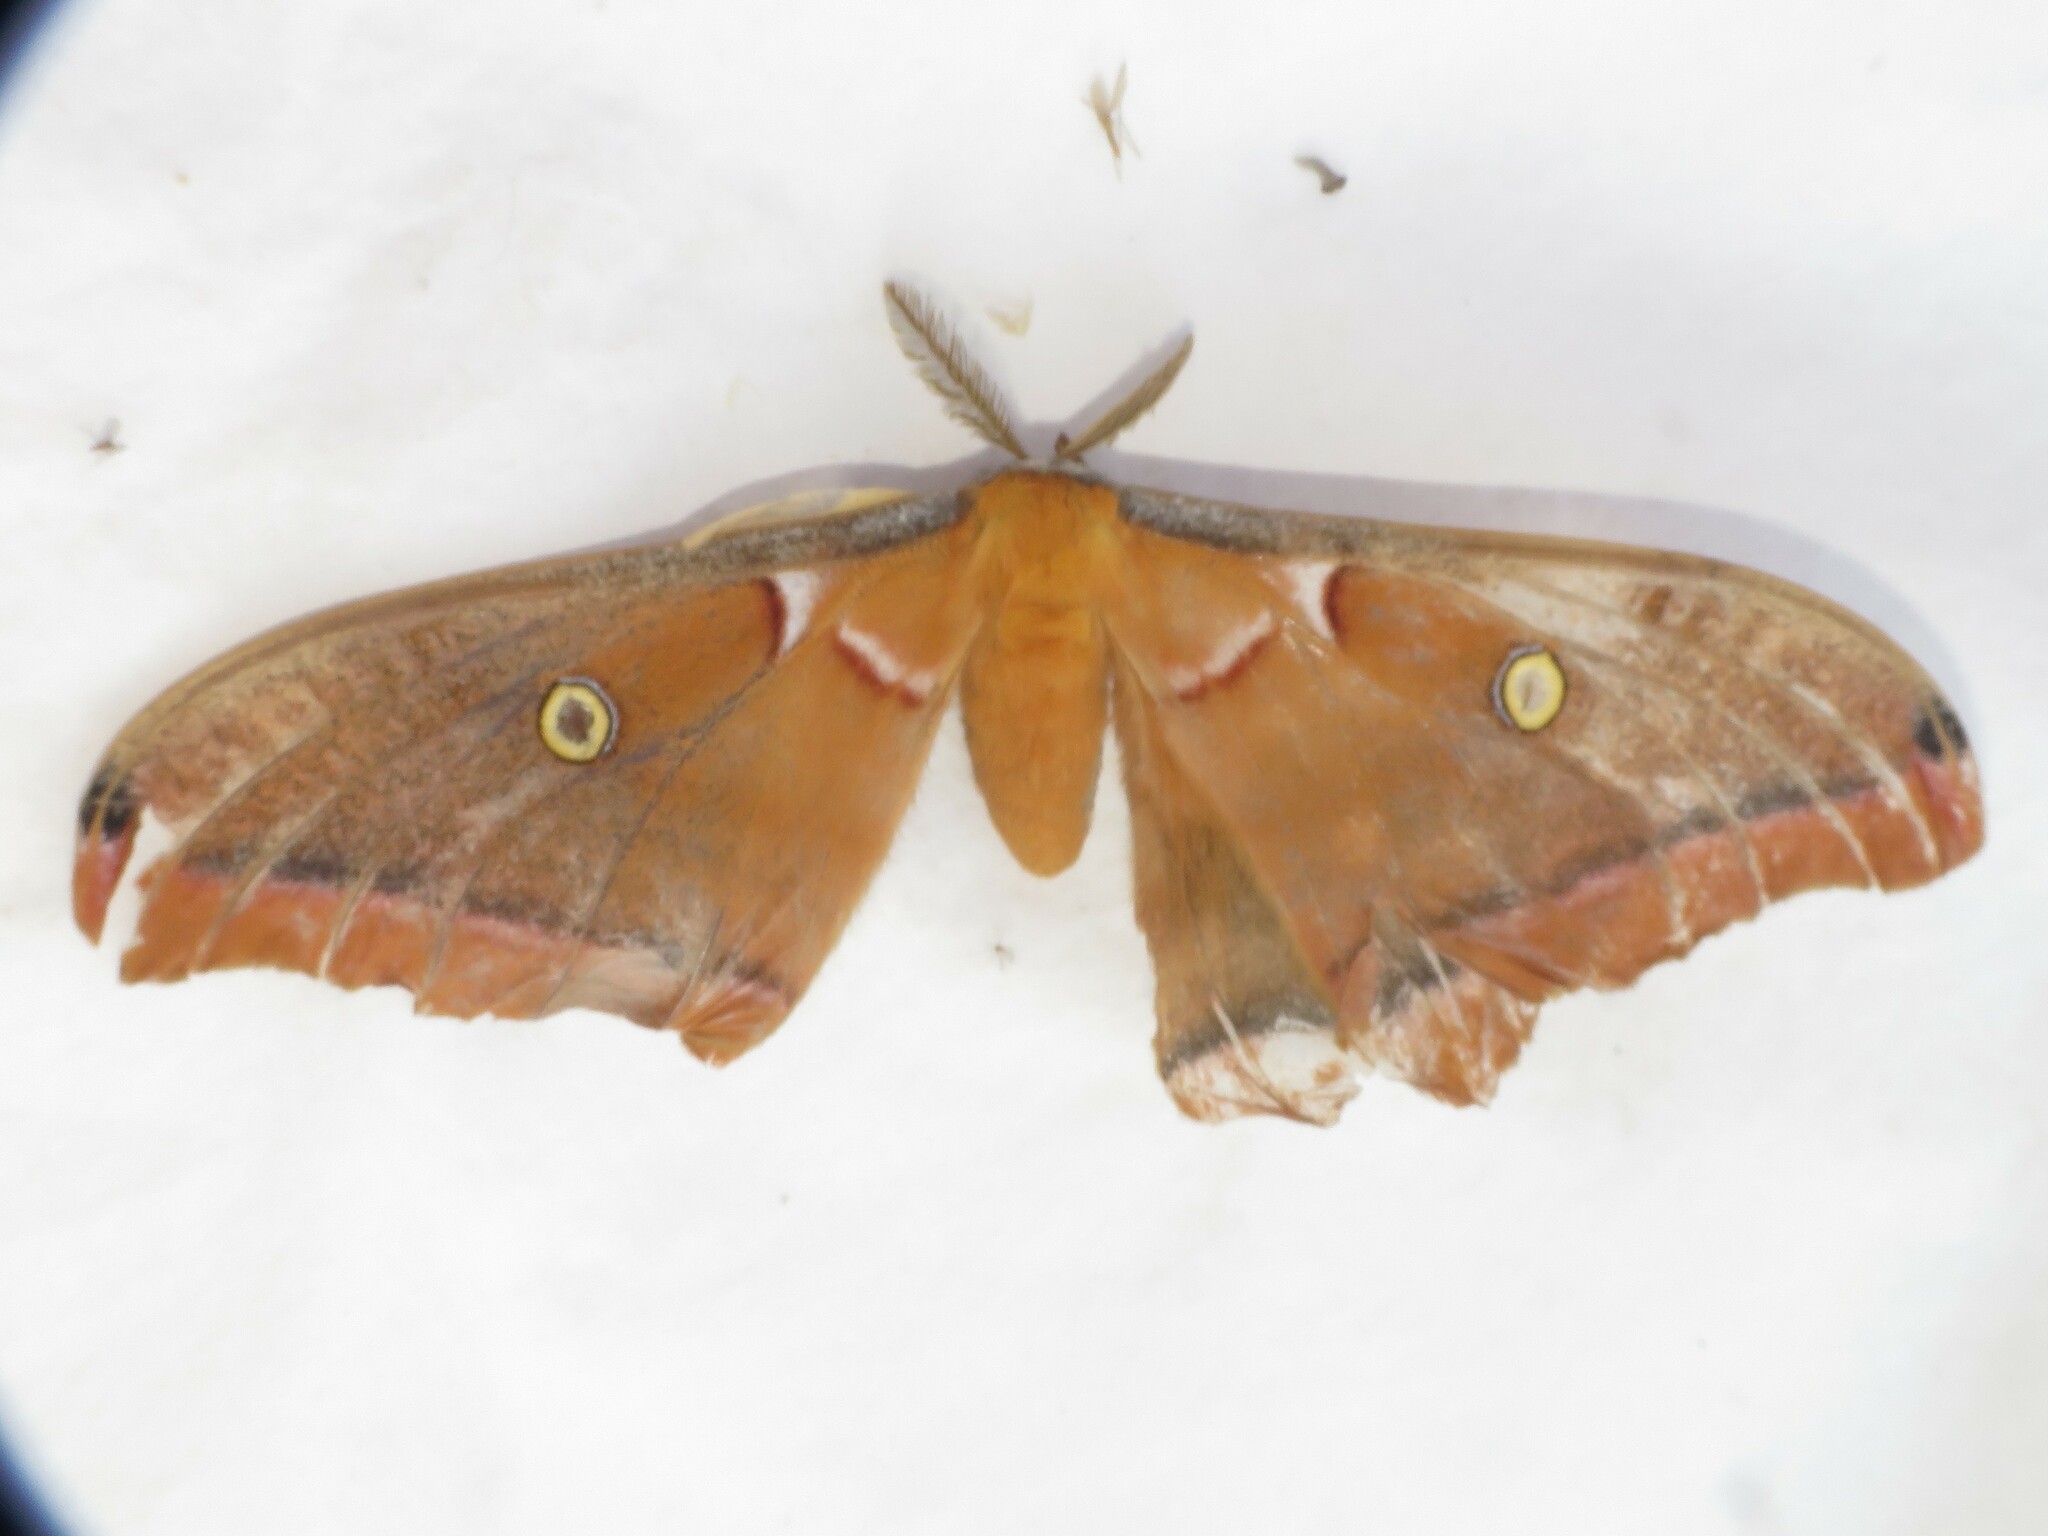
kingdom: Animalia
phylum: Arthropoda
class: Insecta
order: Lepidoptera
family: Saturniidae
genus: Antheraea
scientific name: Antheraea polyphemus
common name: Polyphemus moth
